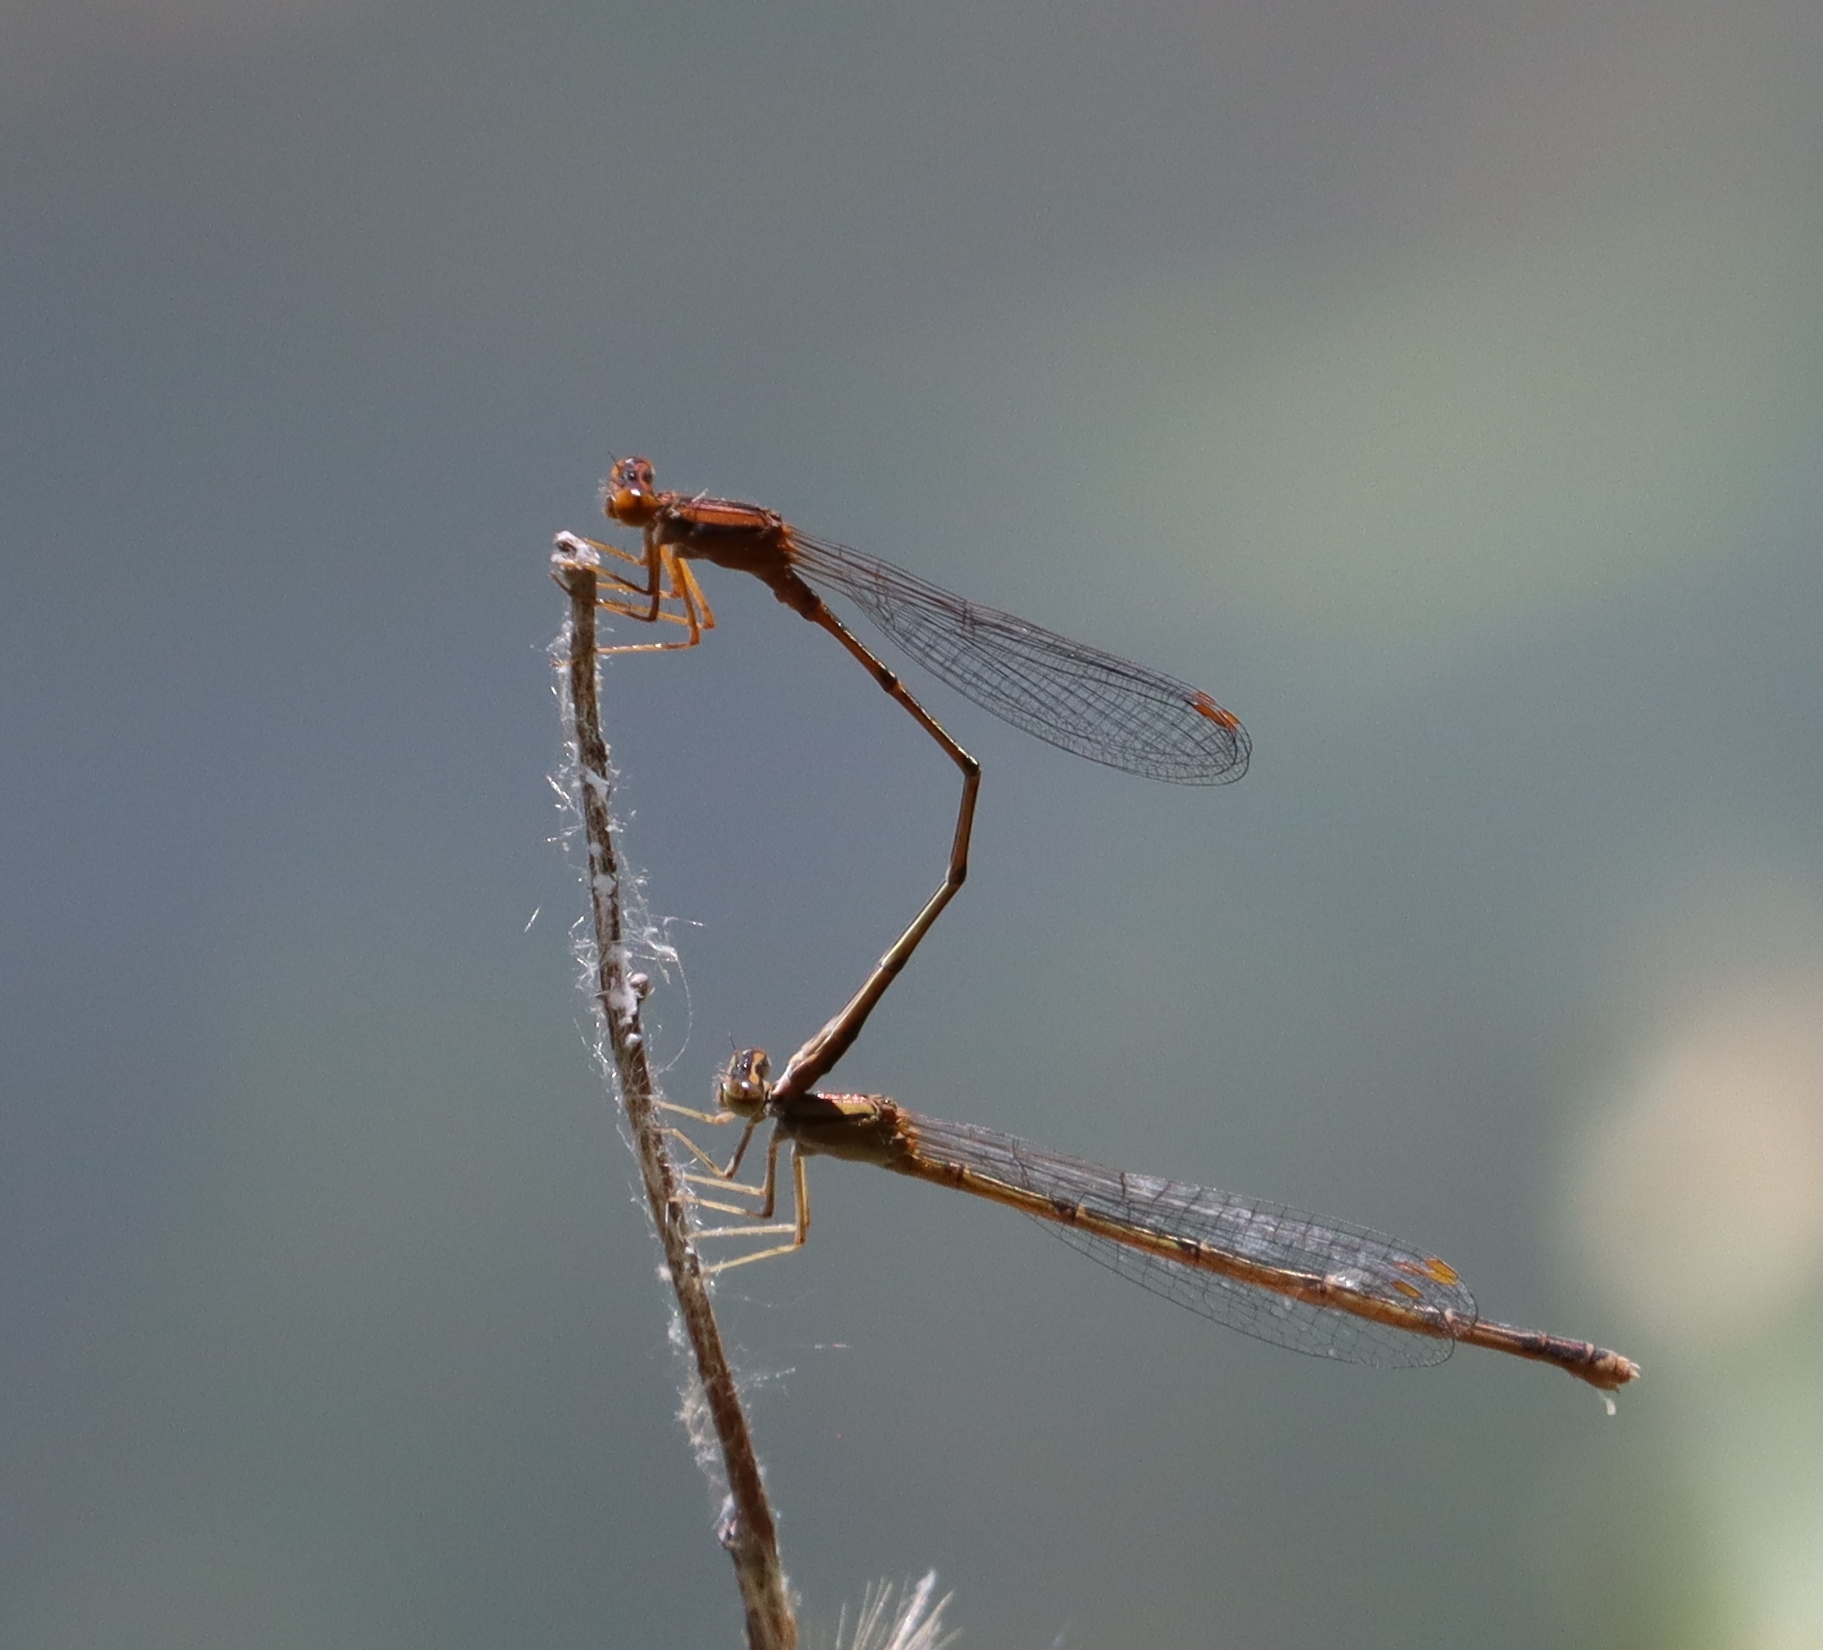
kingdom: Animalia
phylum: Arthropoda
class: Insecta
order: Odonata
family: Coenagrionidae
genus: Enallagma
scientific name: Enallagma signatum
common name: Orange bluet
